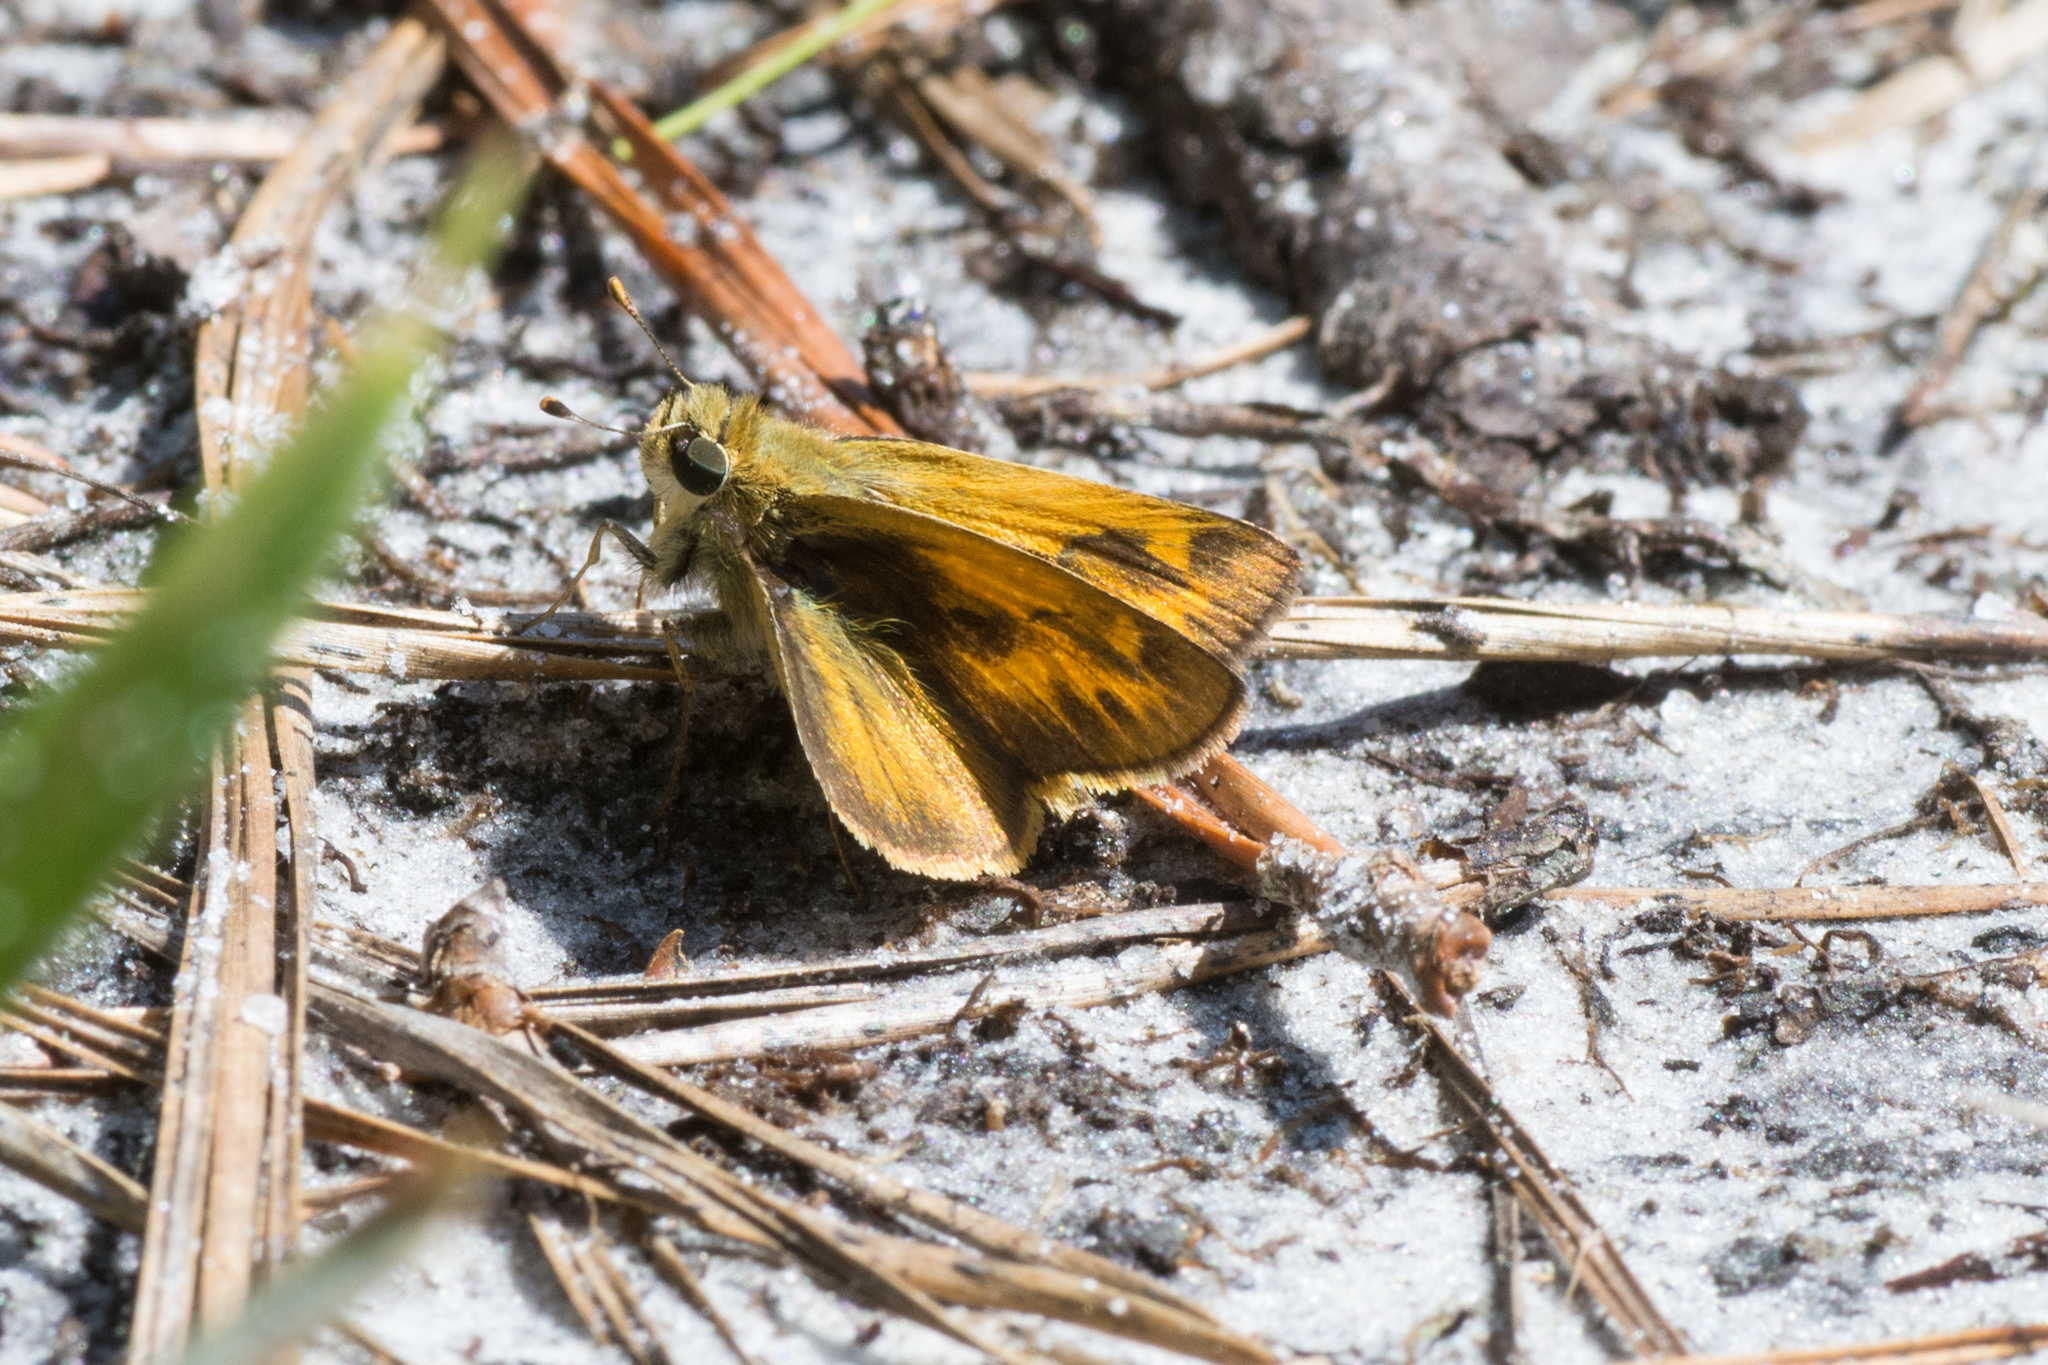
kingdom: Animalia
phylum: Arthropoda
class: Insecta
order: Lepidoptera
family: Hesperiidae
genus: Polites
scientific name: Polites vibex
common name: Whirlabout
